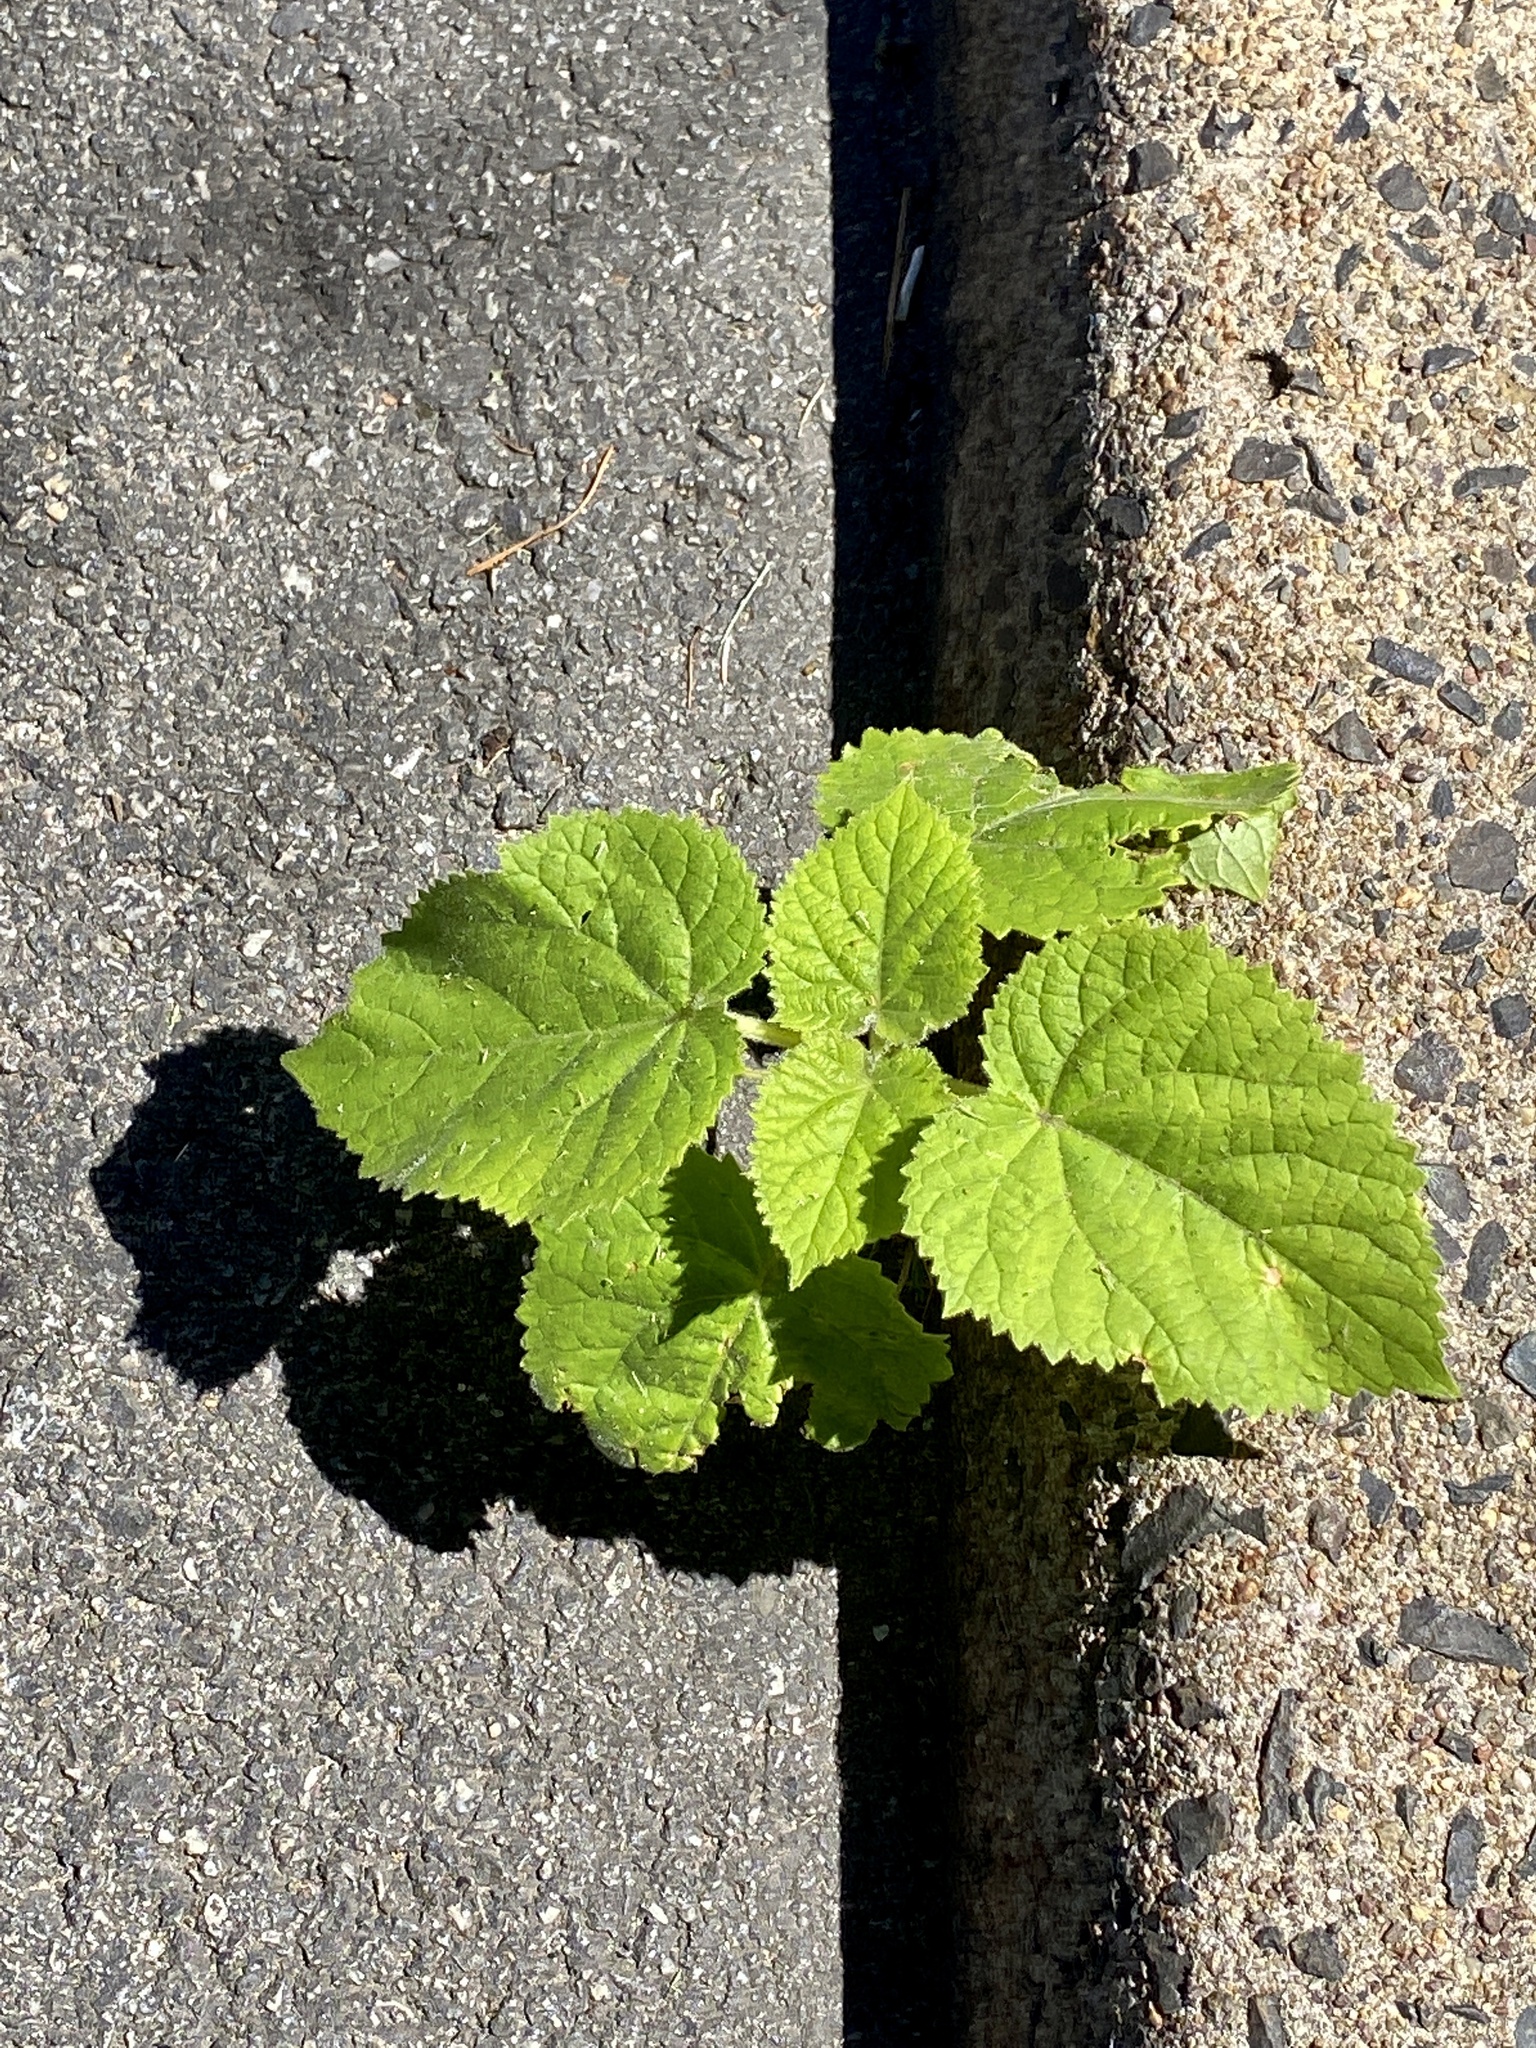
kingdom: Plantae
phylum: Tracheophyta
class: Magnoliopsida
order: Lamiales
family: Paulowniaceae
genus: Paulownia
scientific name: Paulownia tomentosa
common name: Foxglove-tree
